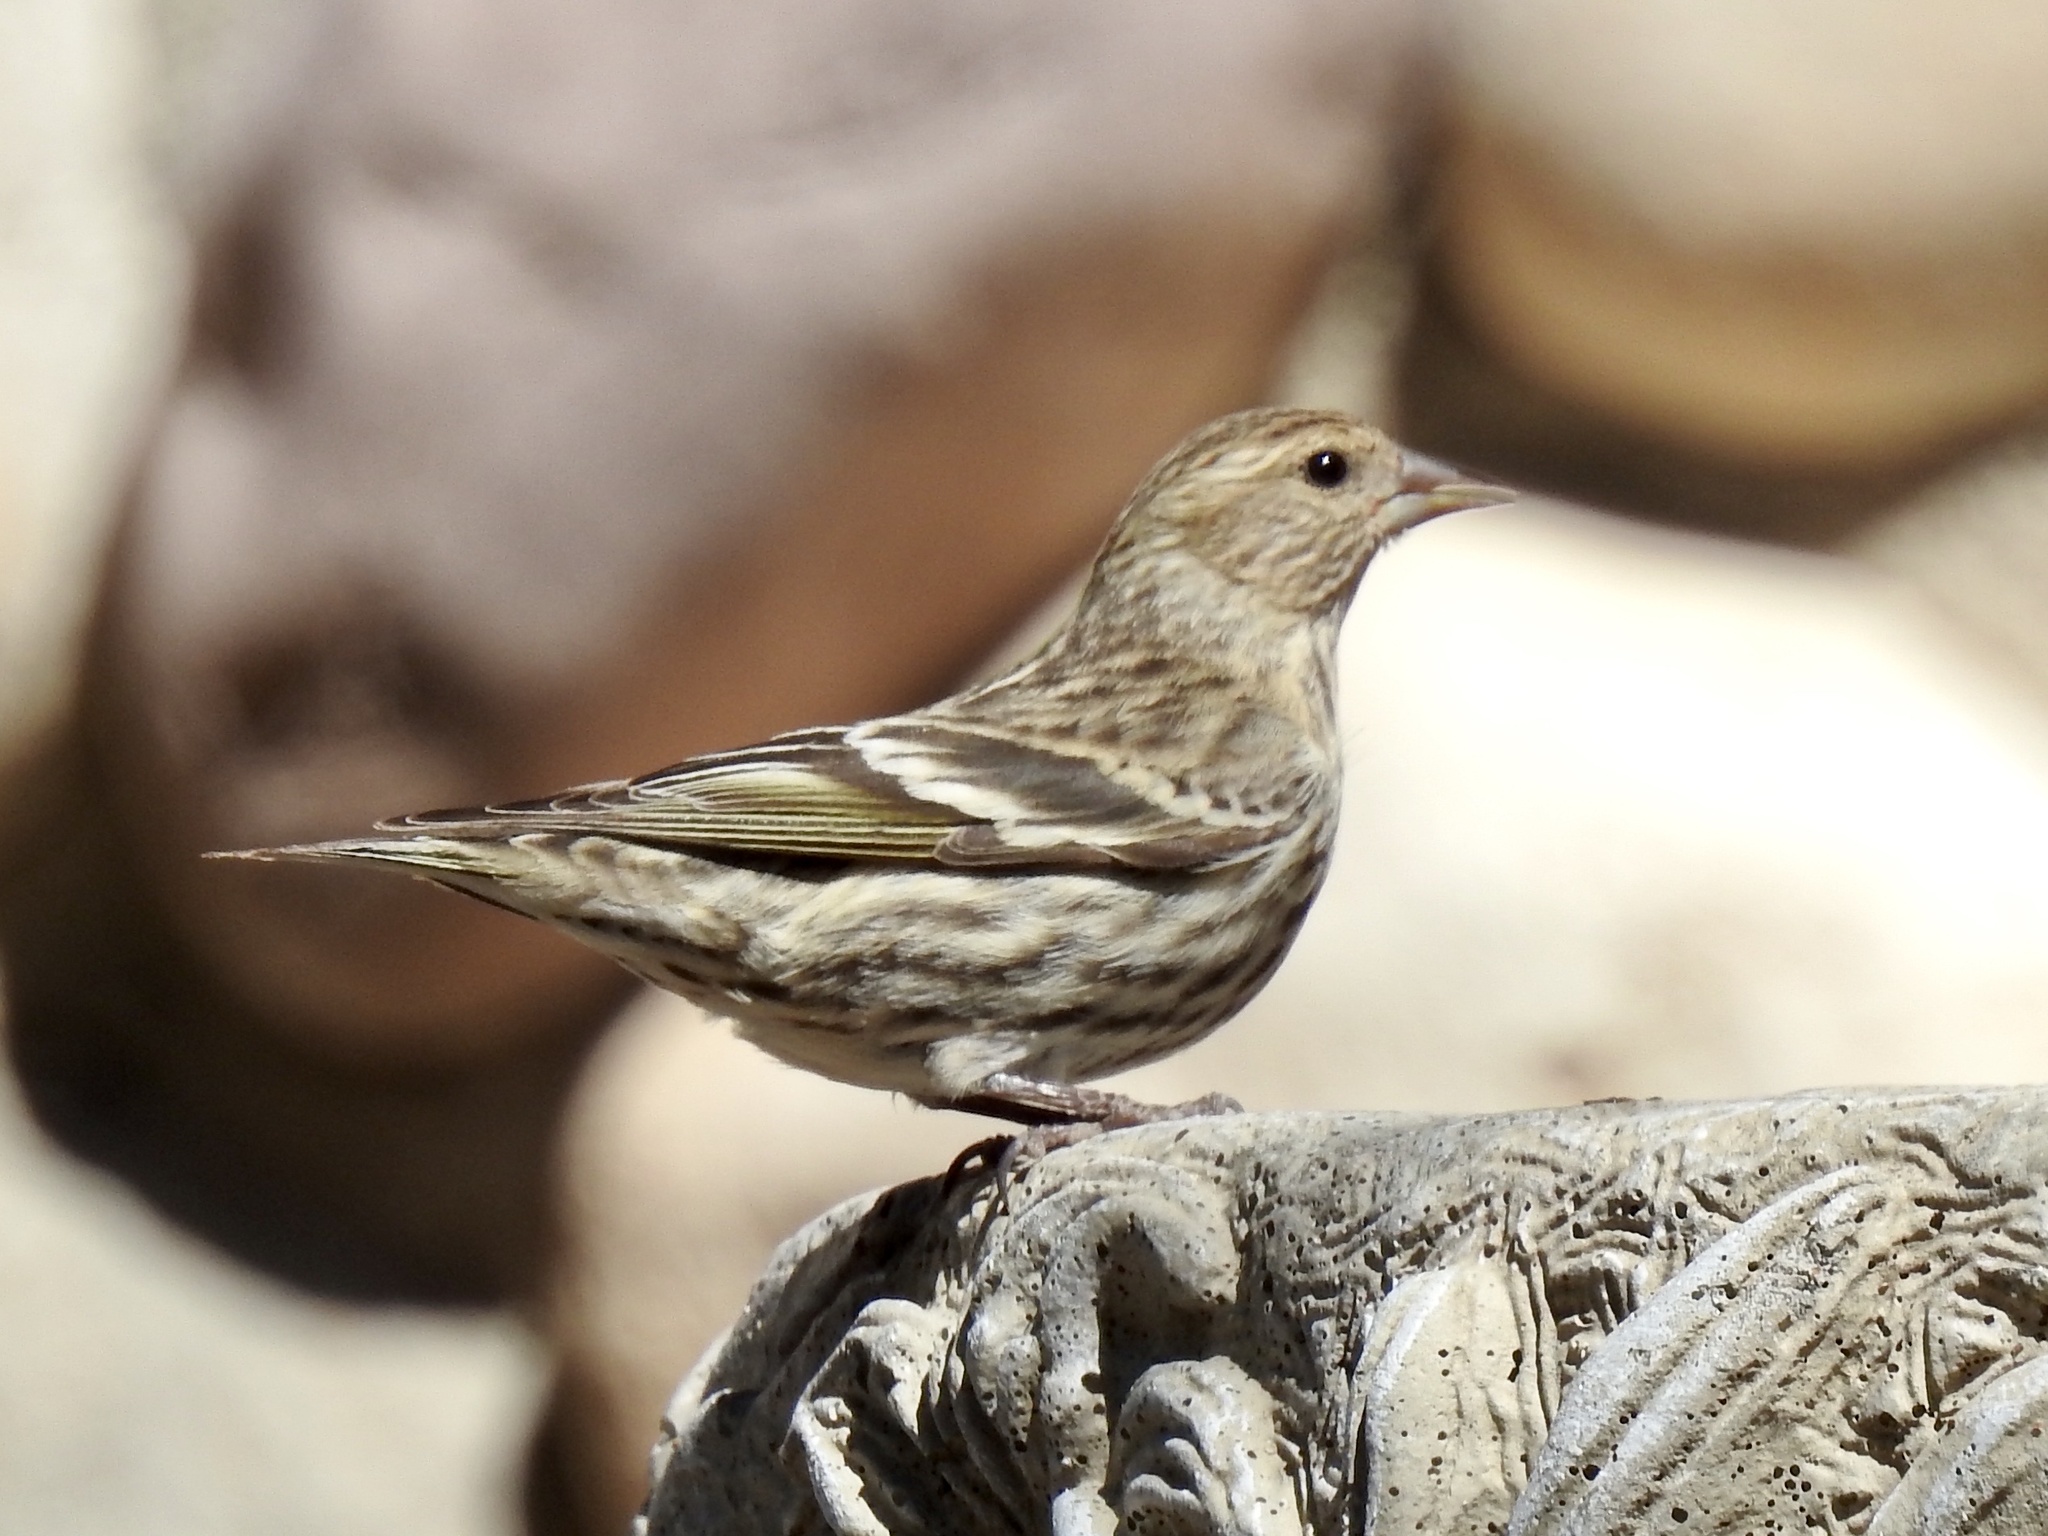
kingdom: Animalia
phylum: Chordata
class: Aves
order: Passeriformes
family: Fringillidae
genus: Spinus
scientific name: Spinus pinus
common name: Pine siskin
